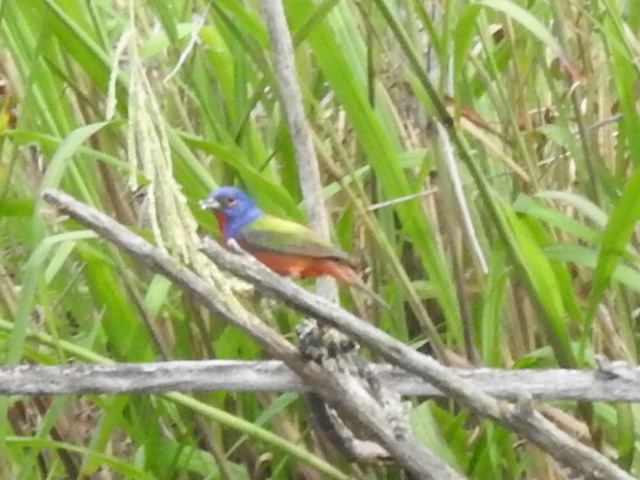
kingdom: Animalia
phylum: Chordata
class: Aves
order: Passeriformes
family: Cardinalidae
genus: Passerina
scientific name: Passerina ciris
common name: Painted bunting
